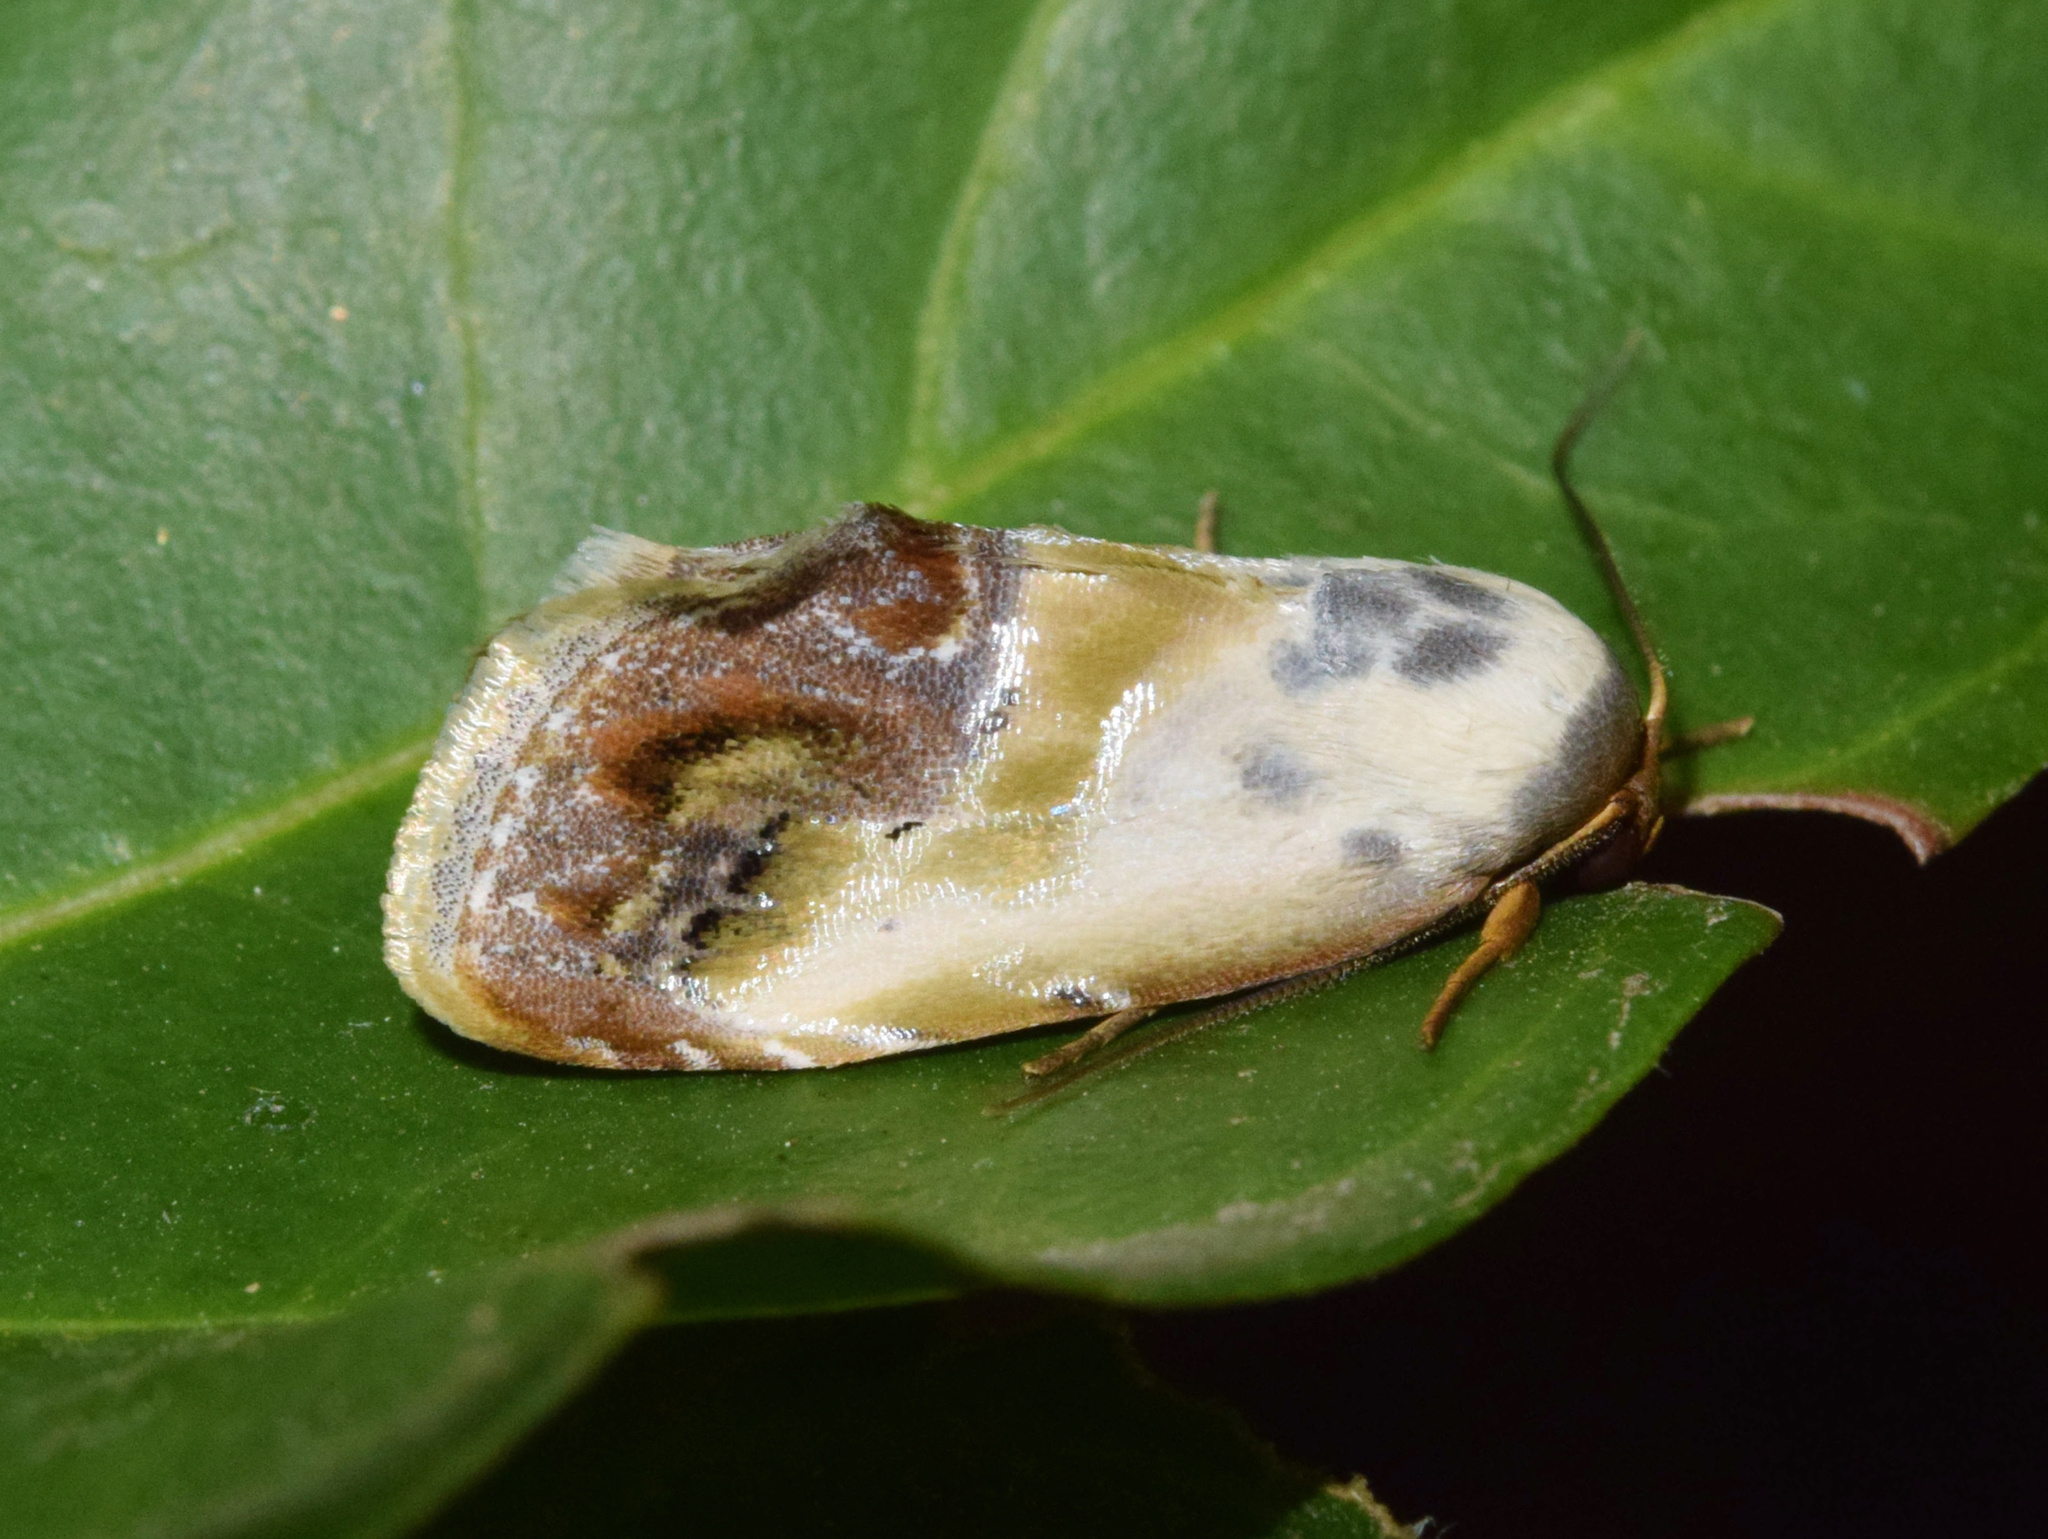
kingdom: Animalia
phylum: Arthropoda
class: Insecta
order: Lepidoptera
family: Nolidae
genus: Negeta
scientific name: Negeta purpurascens
